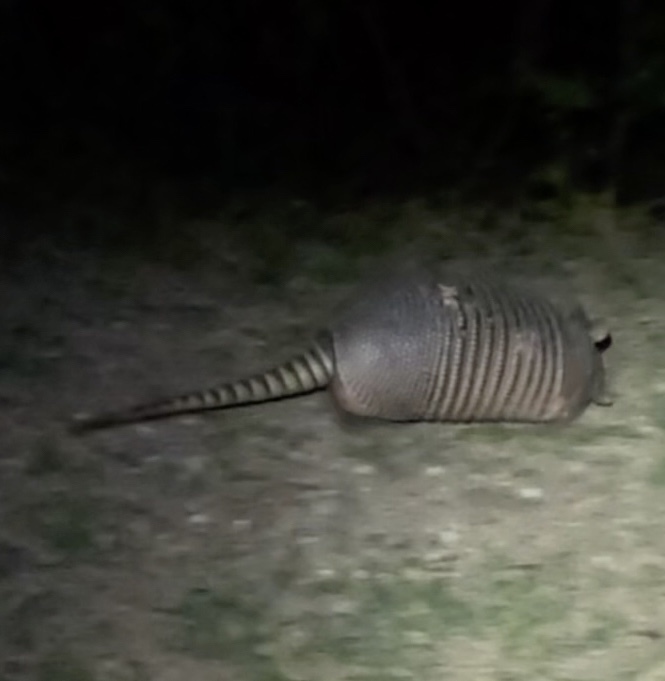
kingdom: Animalia
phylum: Chordata
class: Mammalia
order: Cingulata
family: Dasypodidae
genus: Dasypus
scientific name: Dasypus novemcinctus
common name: Nine-banded armadillo
